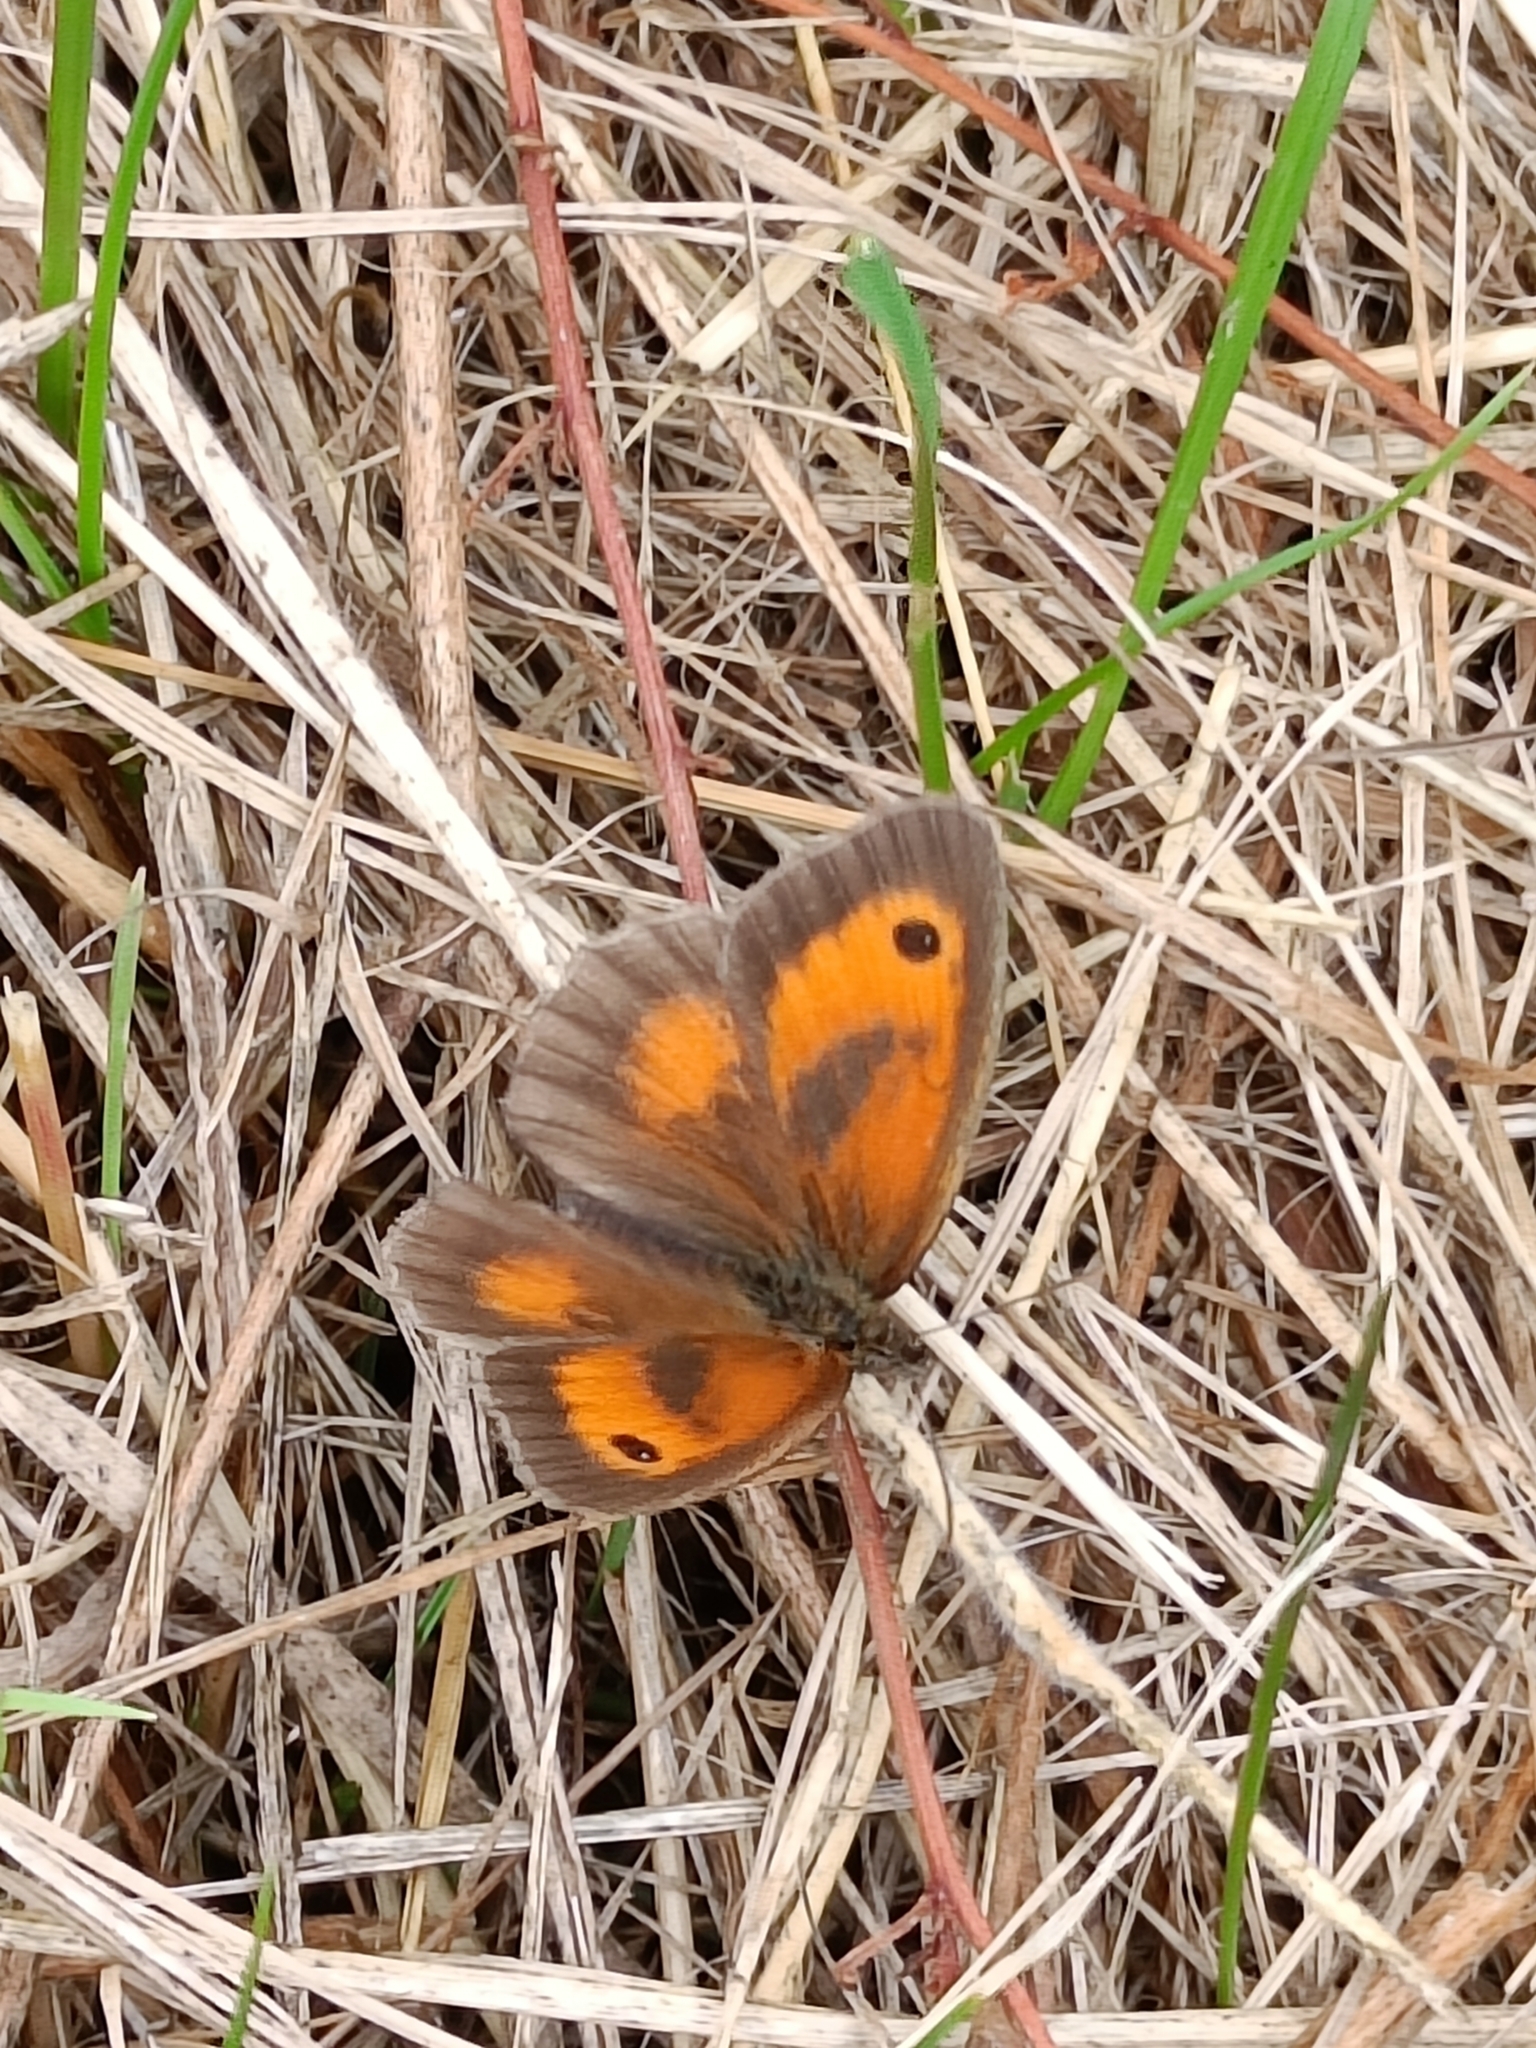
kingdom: Animalia
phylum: Arthropoda
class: Insecta
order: Lepidoptera
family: Nymphalidae
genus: Pyronia
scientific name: Pyronia tithonus
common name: Gatekeeper
